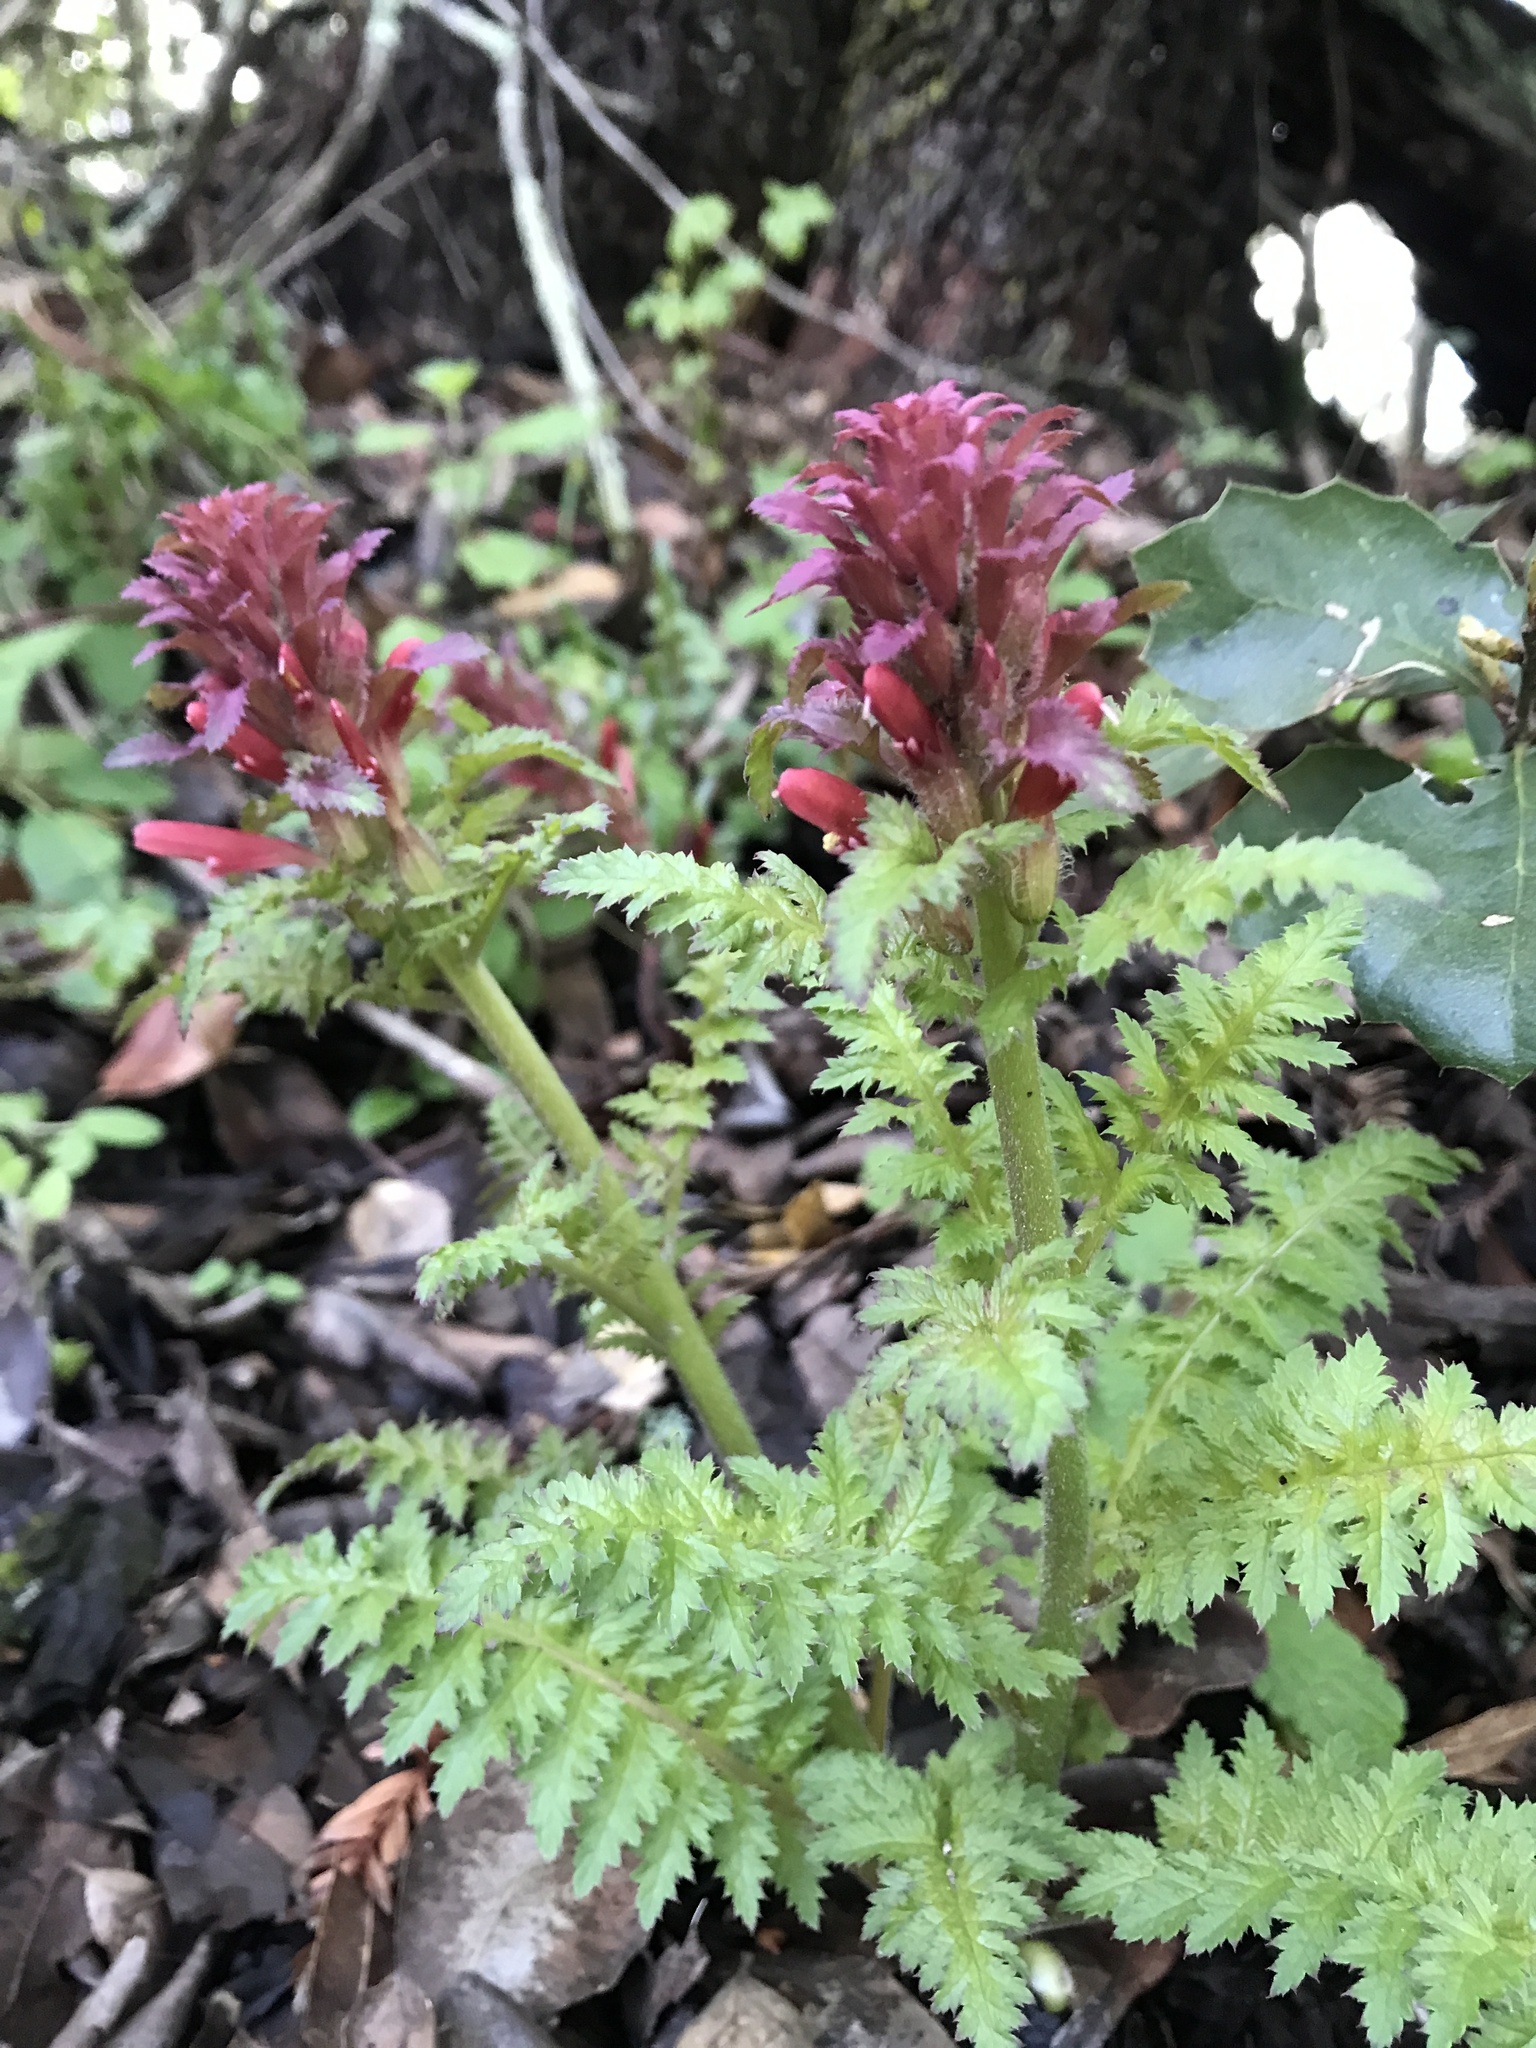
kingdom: Plantae
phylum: Tracheophyta
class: Magnoliopsida
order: Lamiales
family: Orobanchaceae
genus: Pedicularis
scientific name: Pedicularis densiflora
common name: Indian warrior
